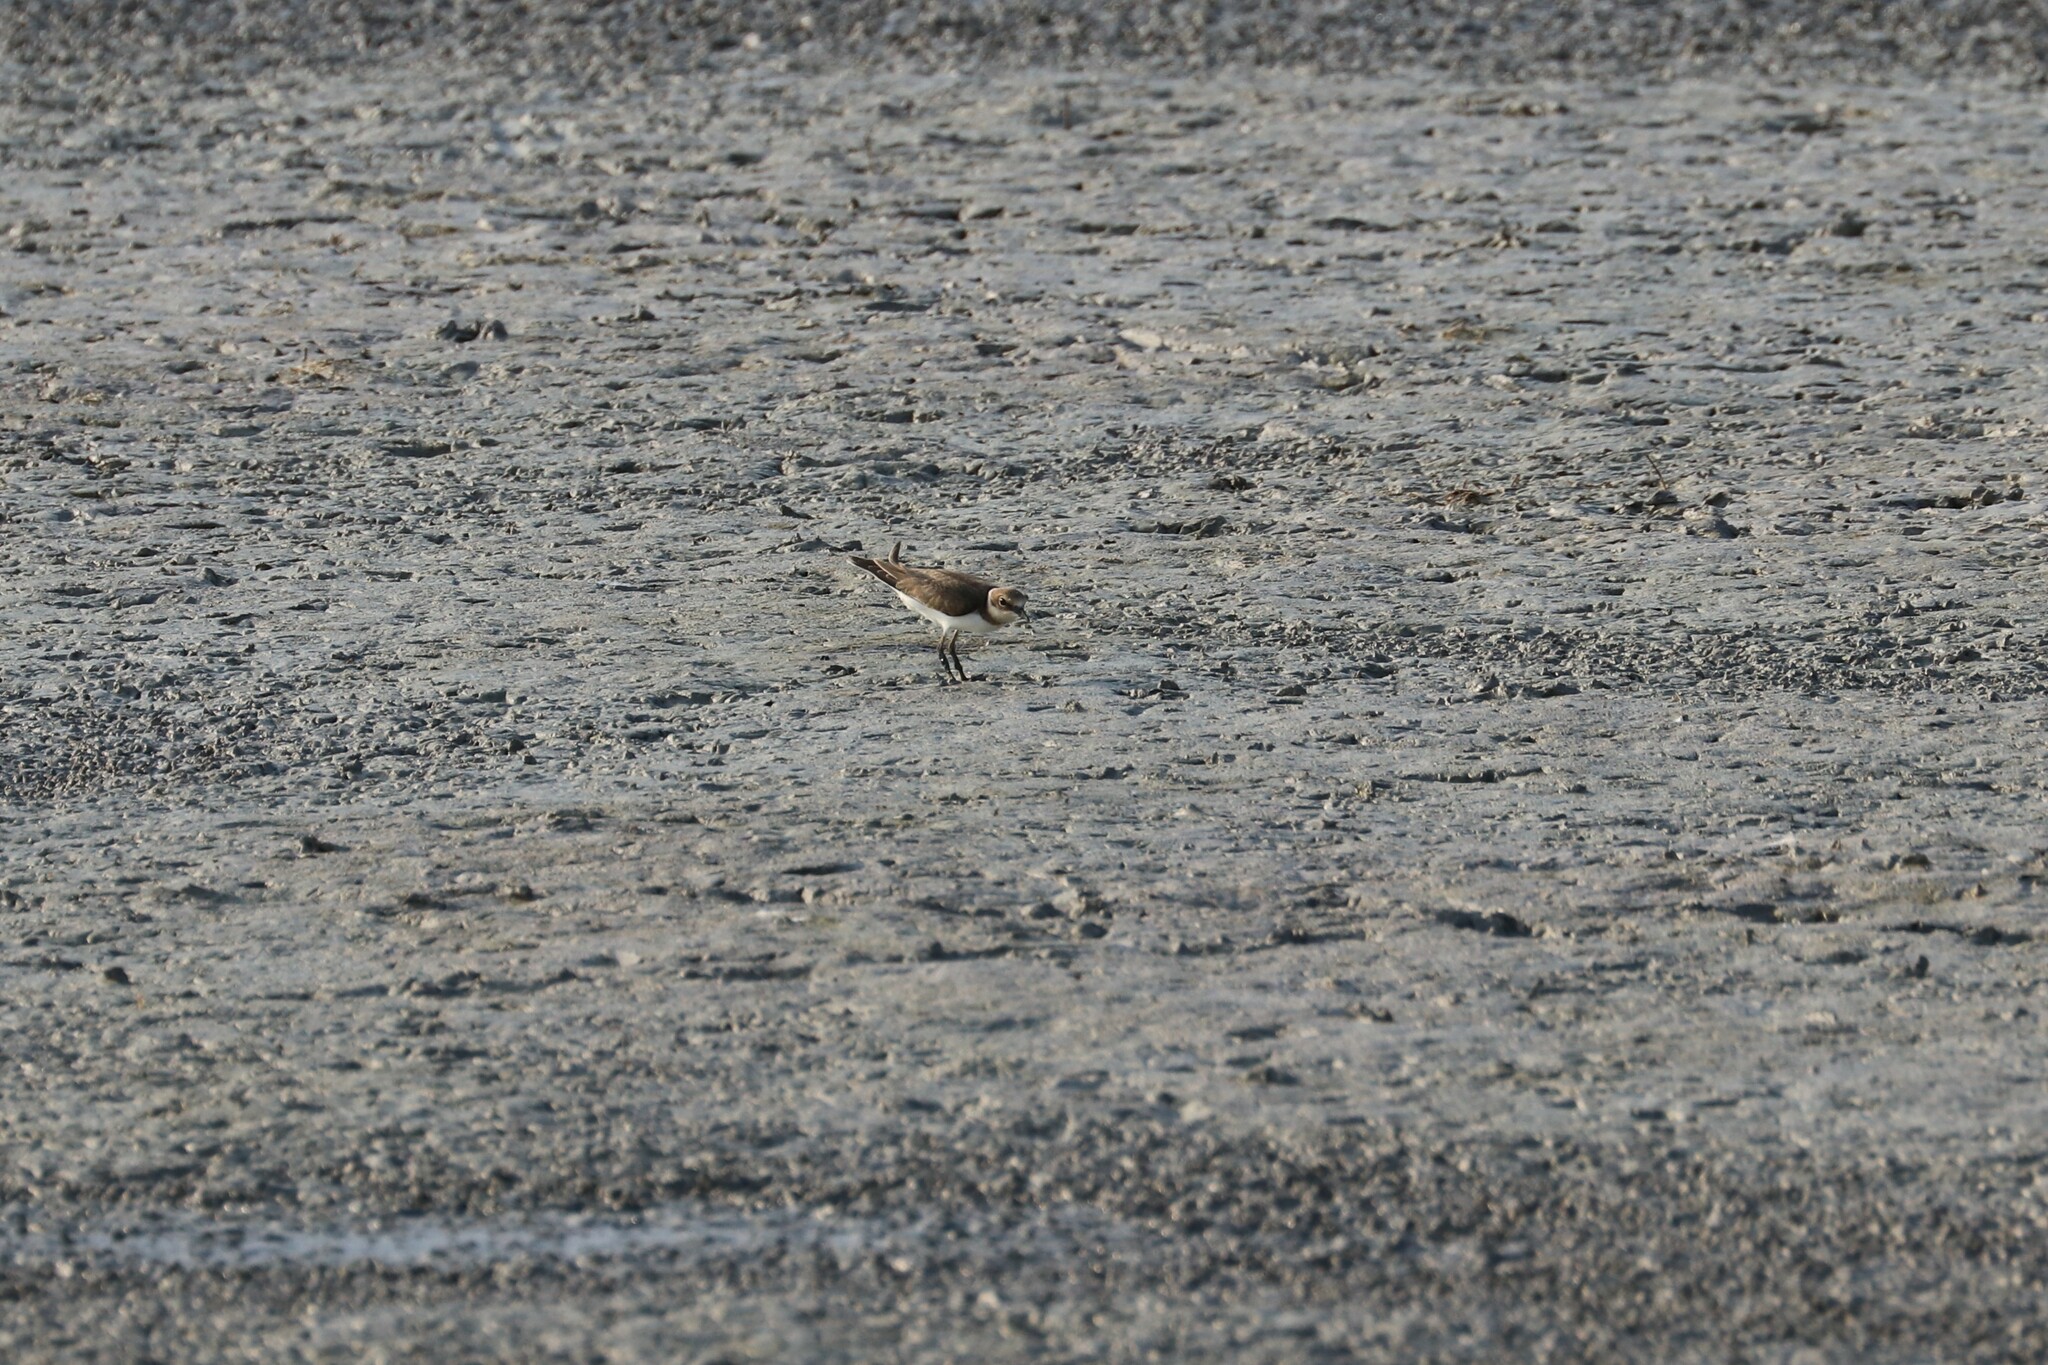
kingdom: Animalia
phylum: Chordata
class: Aves
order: Charadriiformes
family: Charadriidae
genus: Charadrius
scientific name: Charadrius dubius
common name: Little ringed plover
